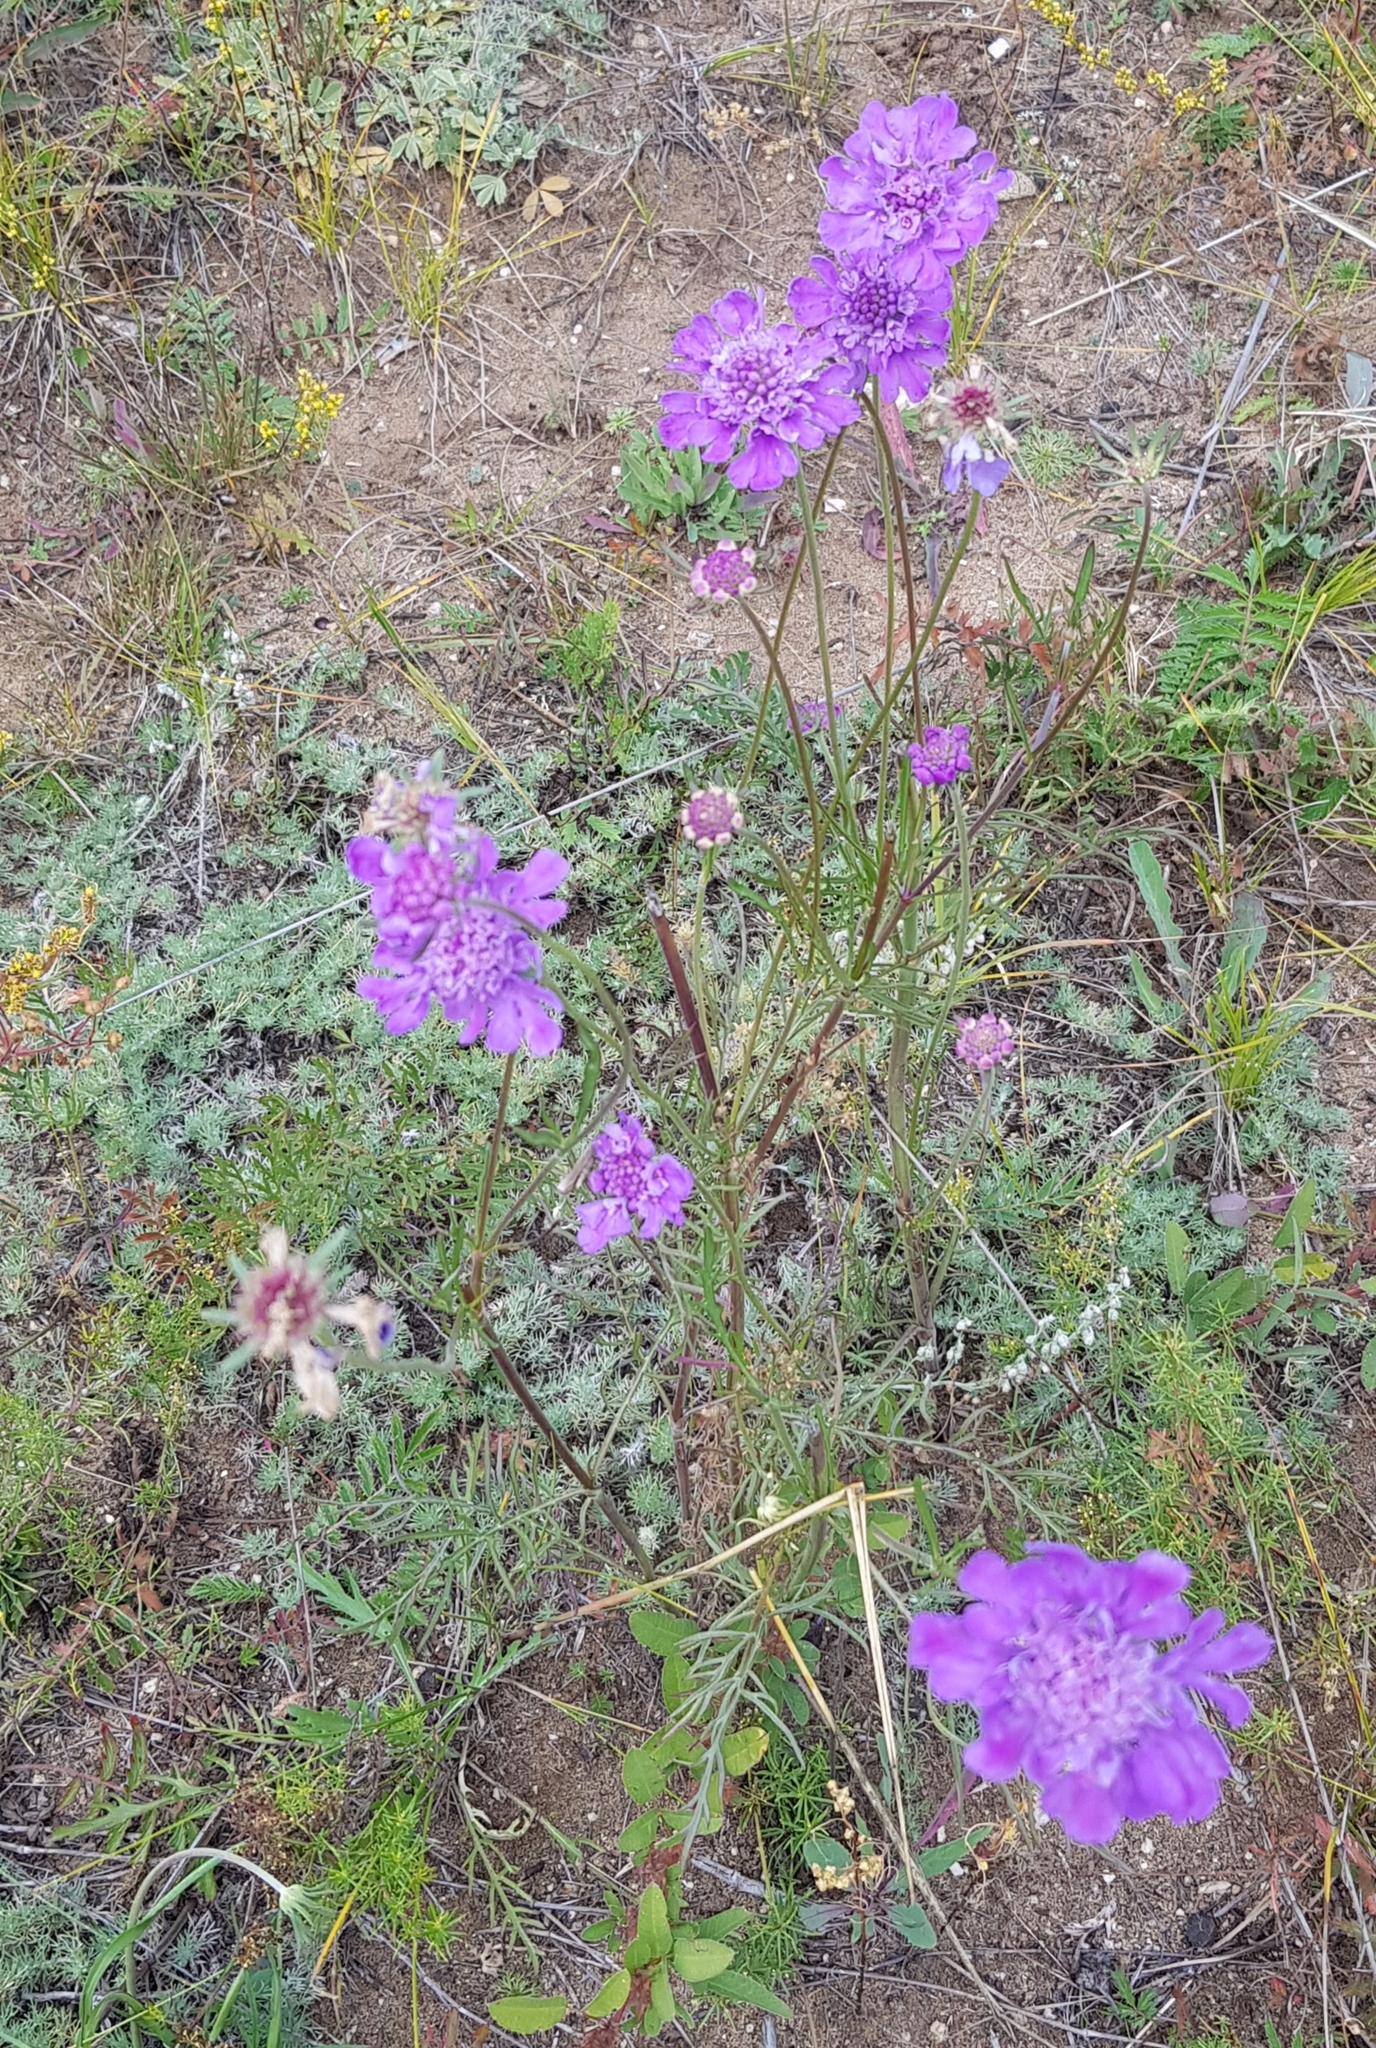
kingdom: Plantae
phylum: Tracheophyta
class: Magnoliopsida
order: Dipsacales
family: Caprifoliaceae
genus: Scabiosa
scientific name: Scabiosa comosa
